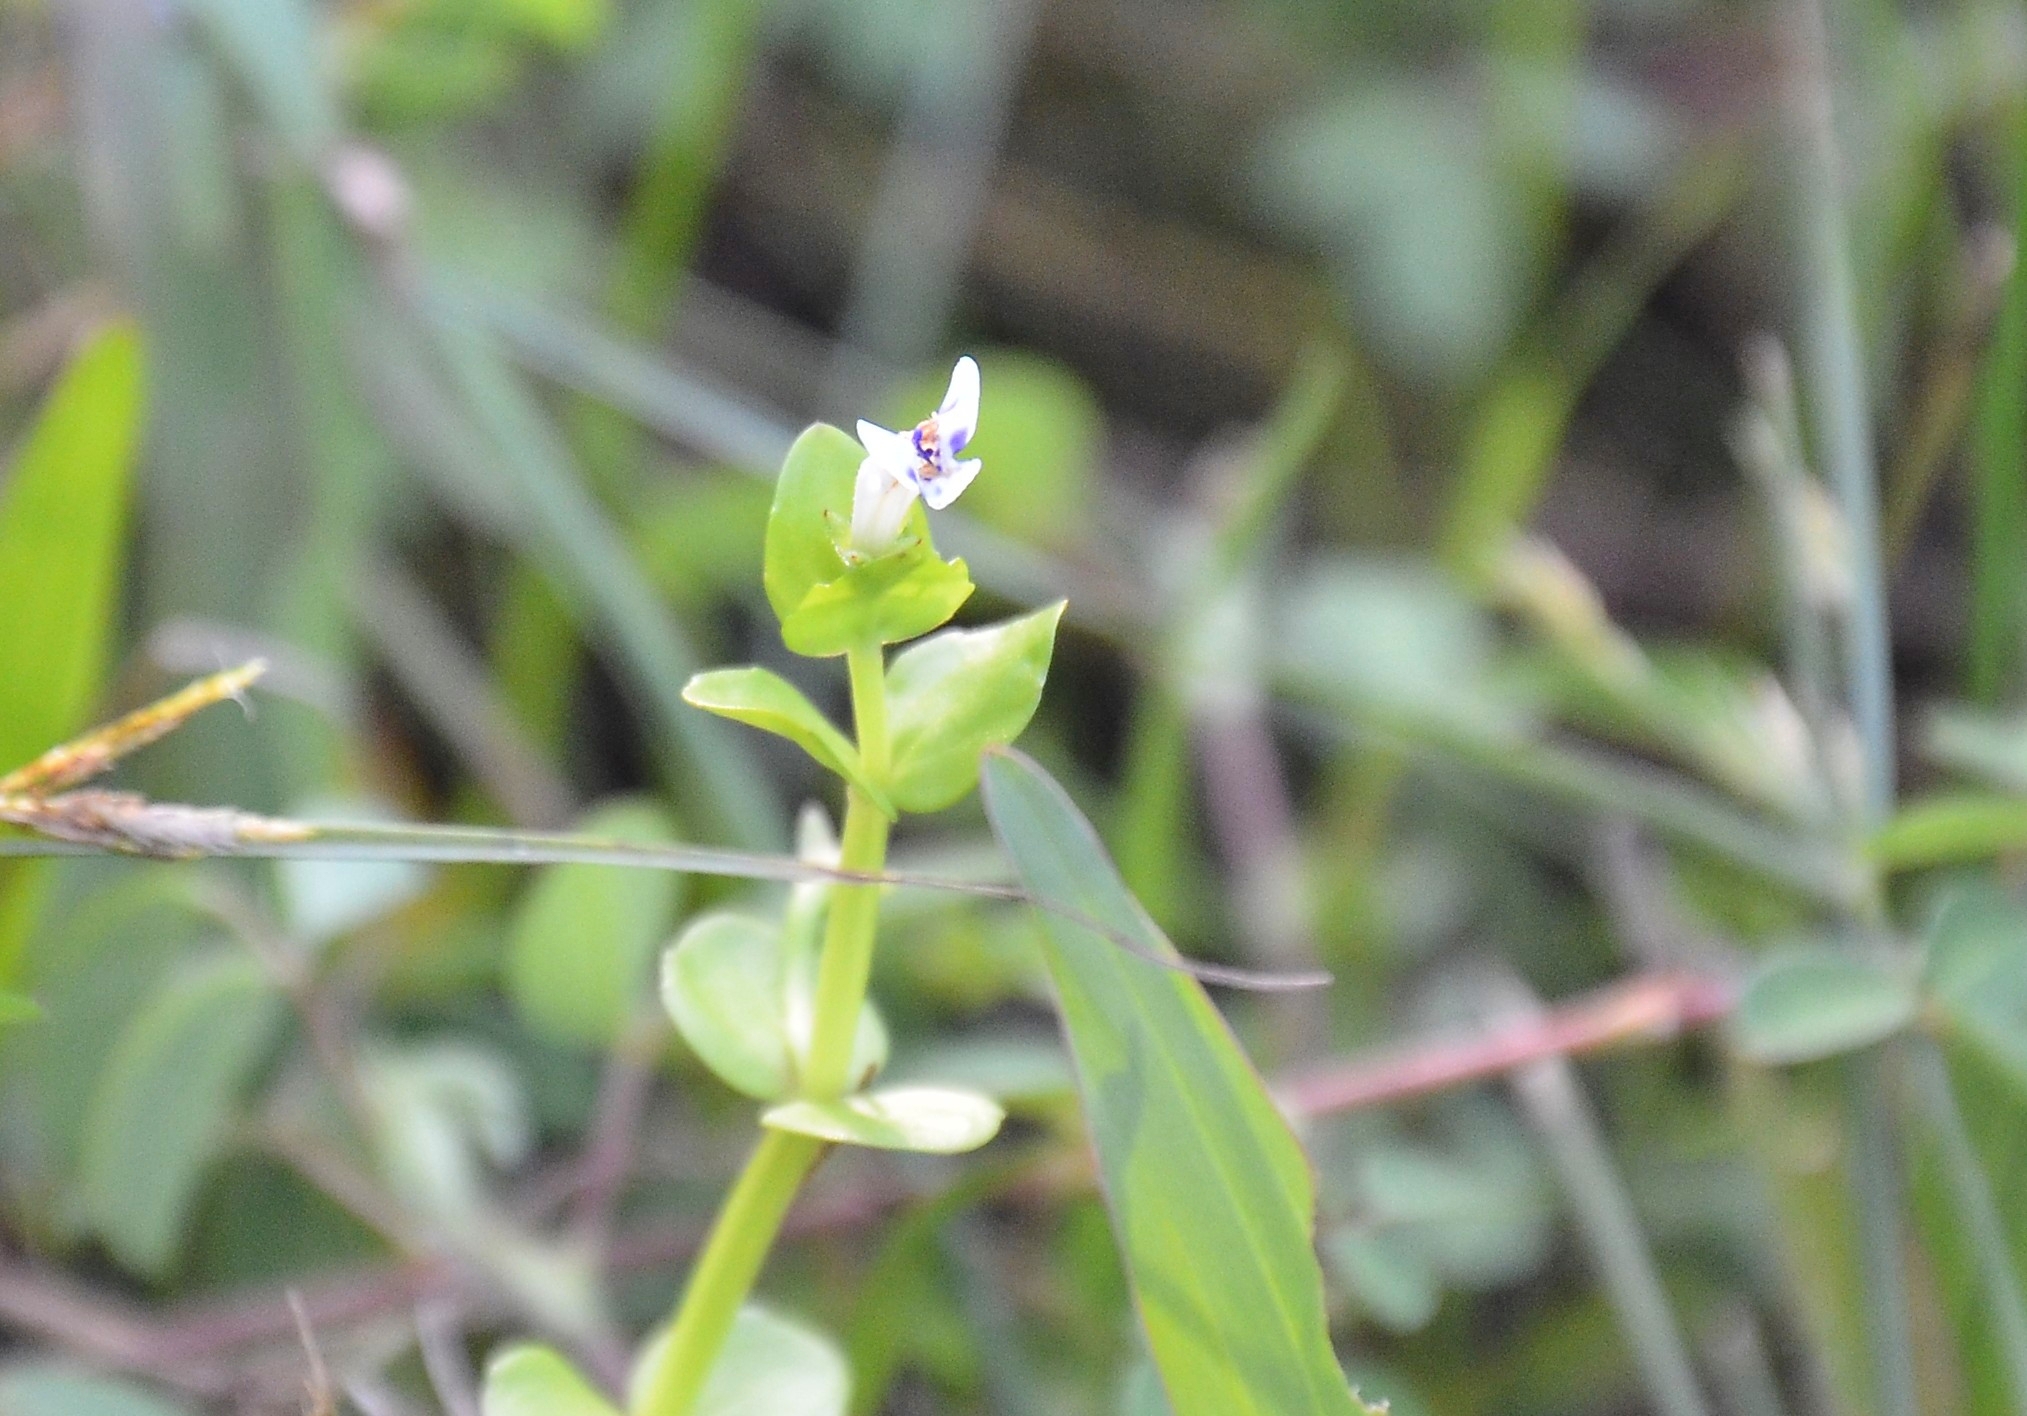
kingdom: Plantae
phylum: Tracheophyta
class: Magnoliopsida
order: Lamiales
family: Linderniaceae
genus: Lindernia
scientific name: Lindernia rotundifolia
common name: Baby’s tears
